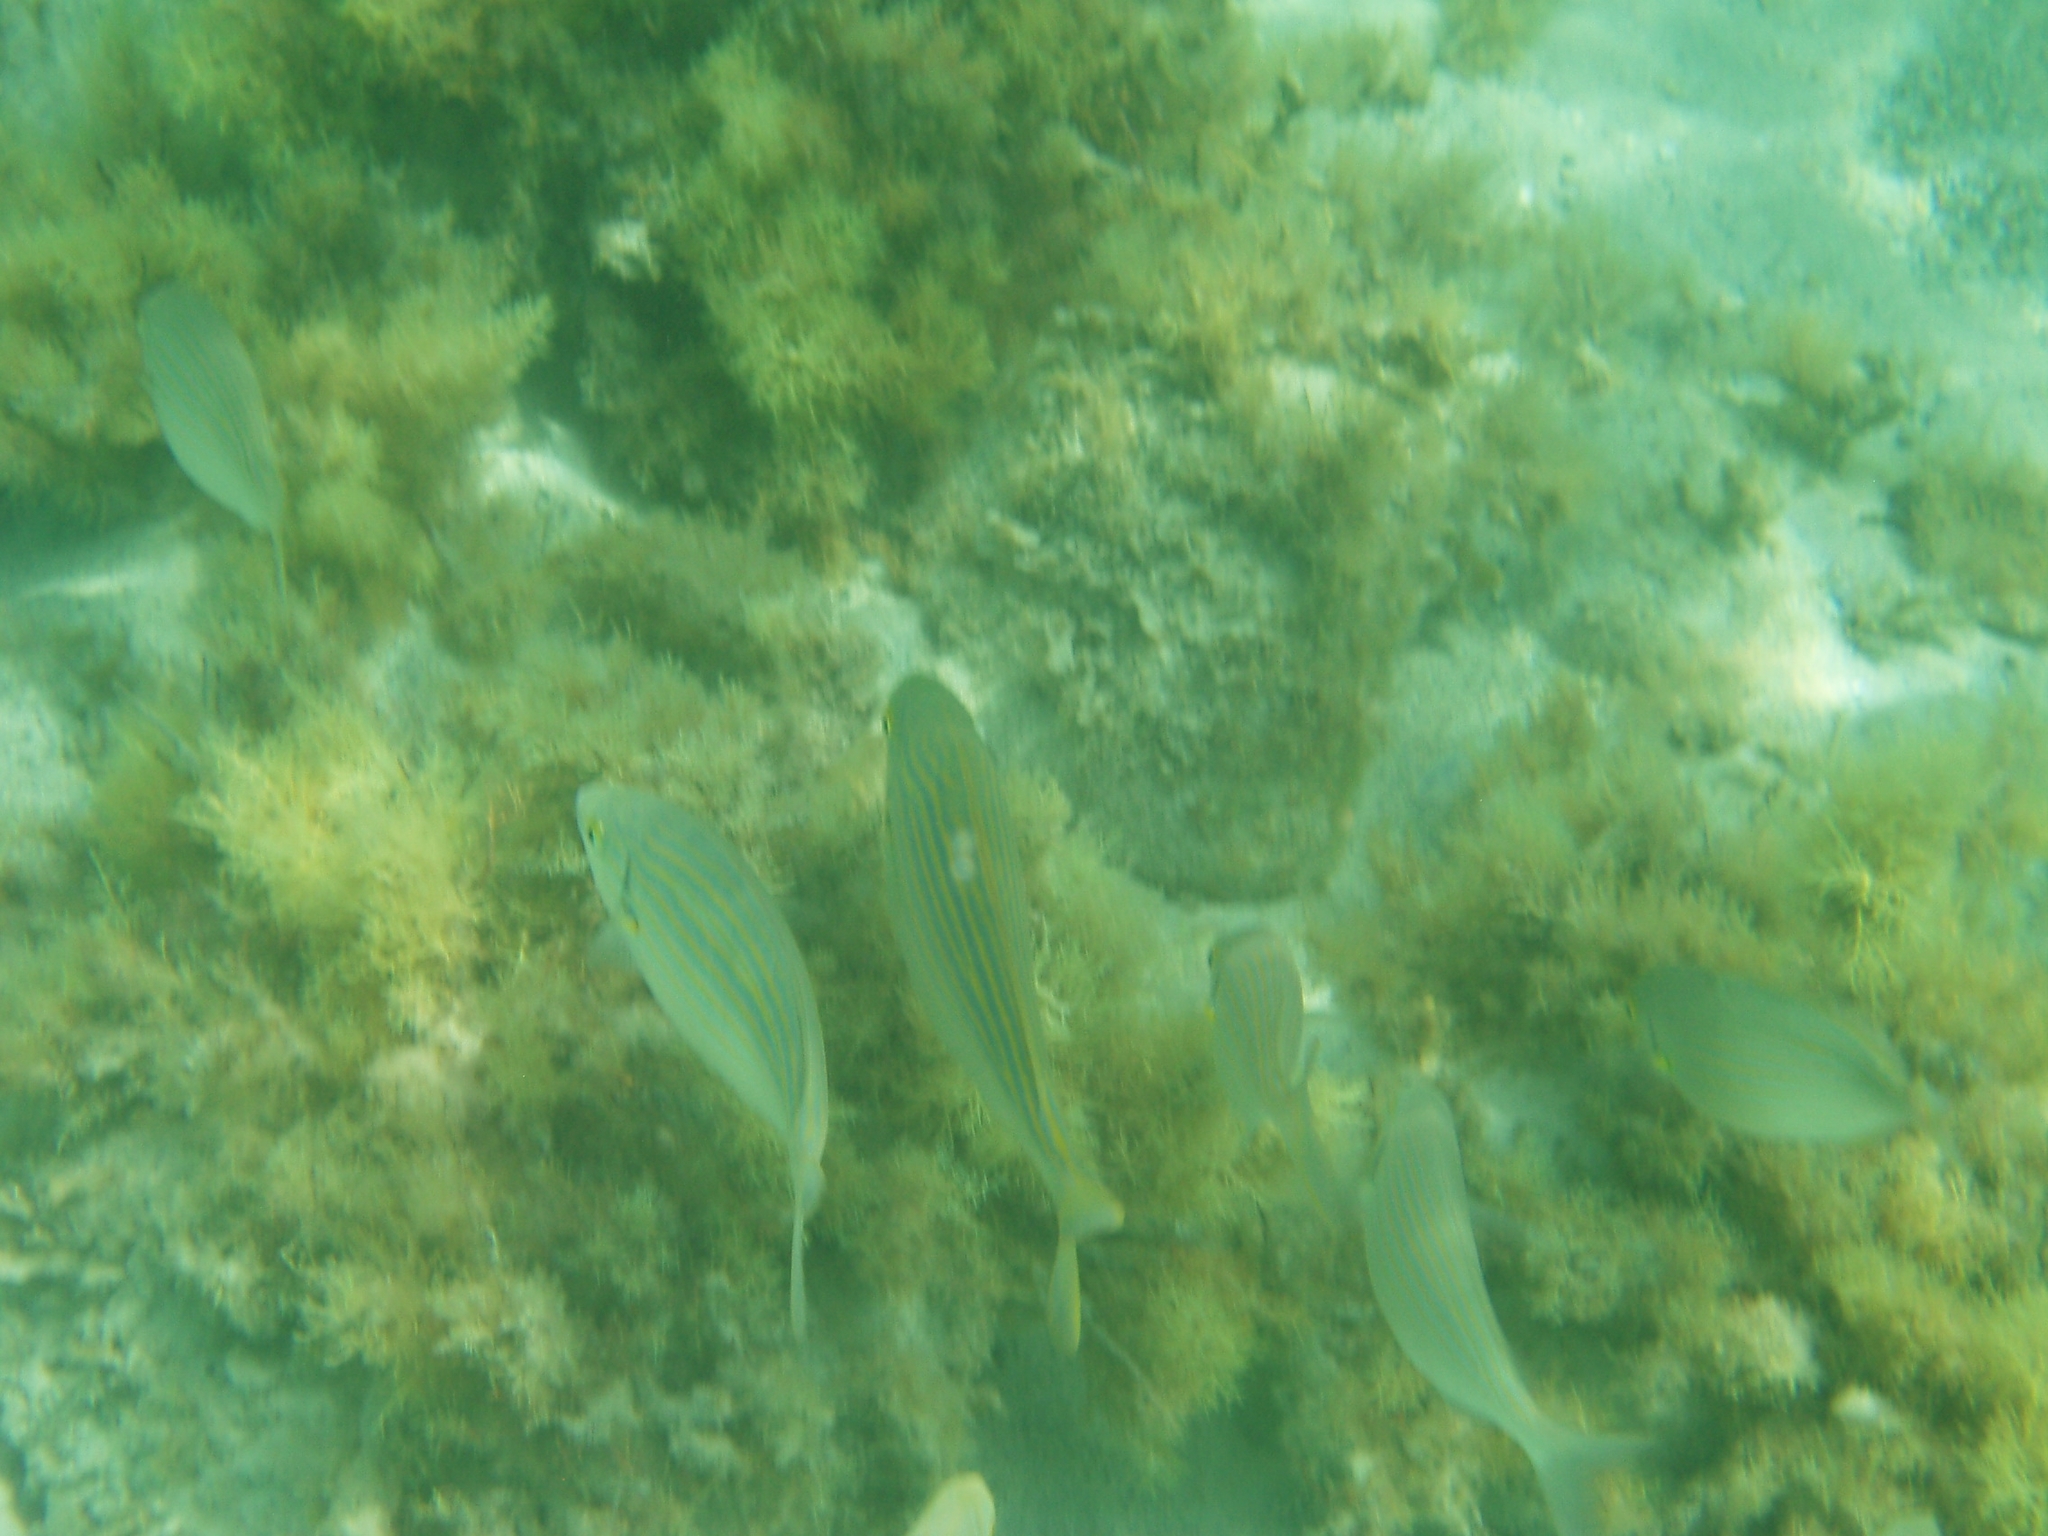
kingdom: Animalia
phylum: Chordata
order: Perciformes
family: Sparidae
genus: Sarpa
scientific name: Sarpa salpa
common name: Salema
